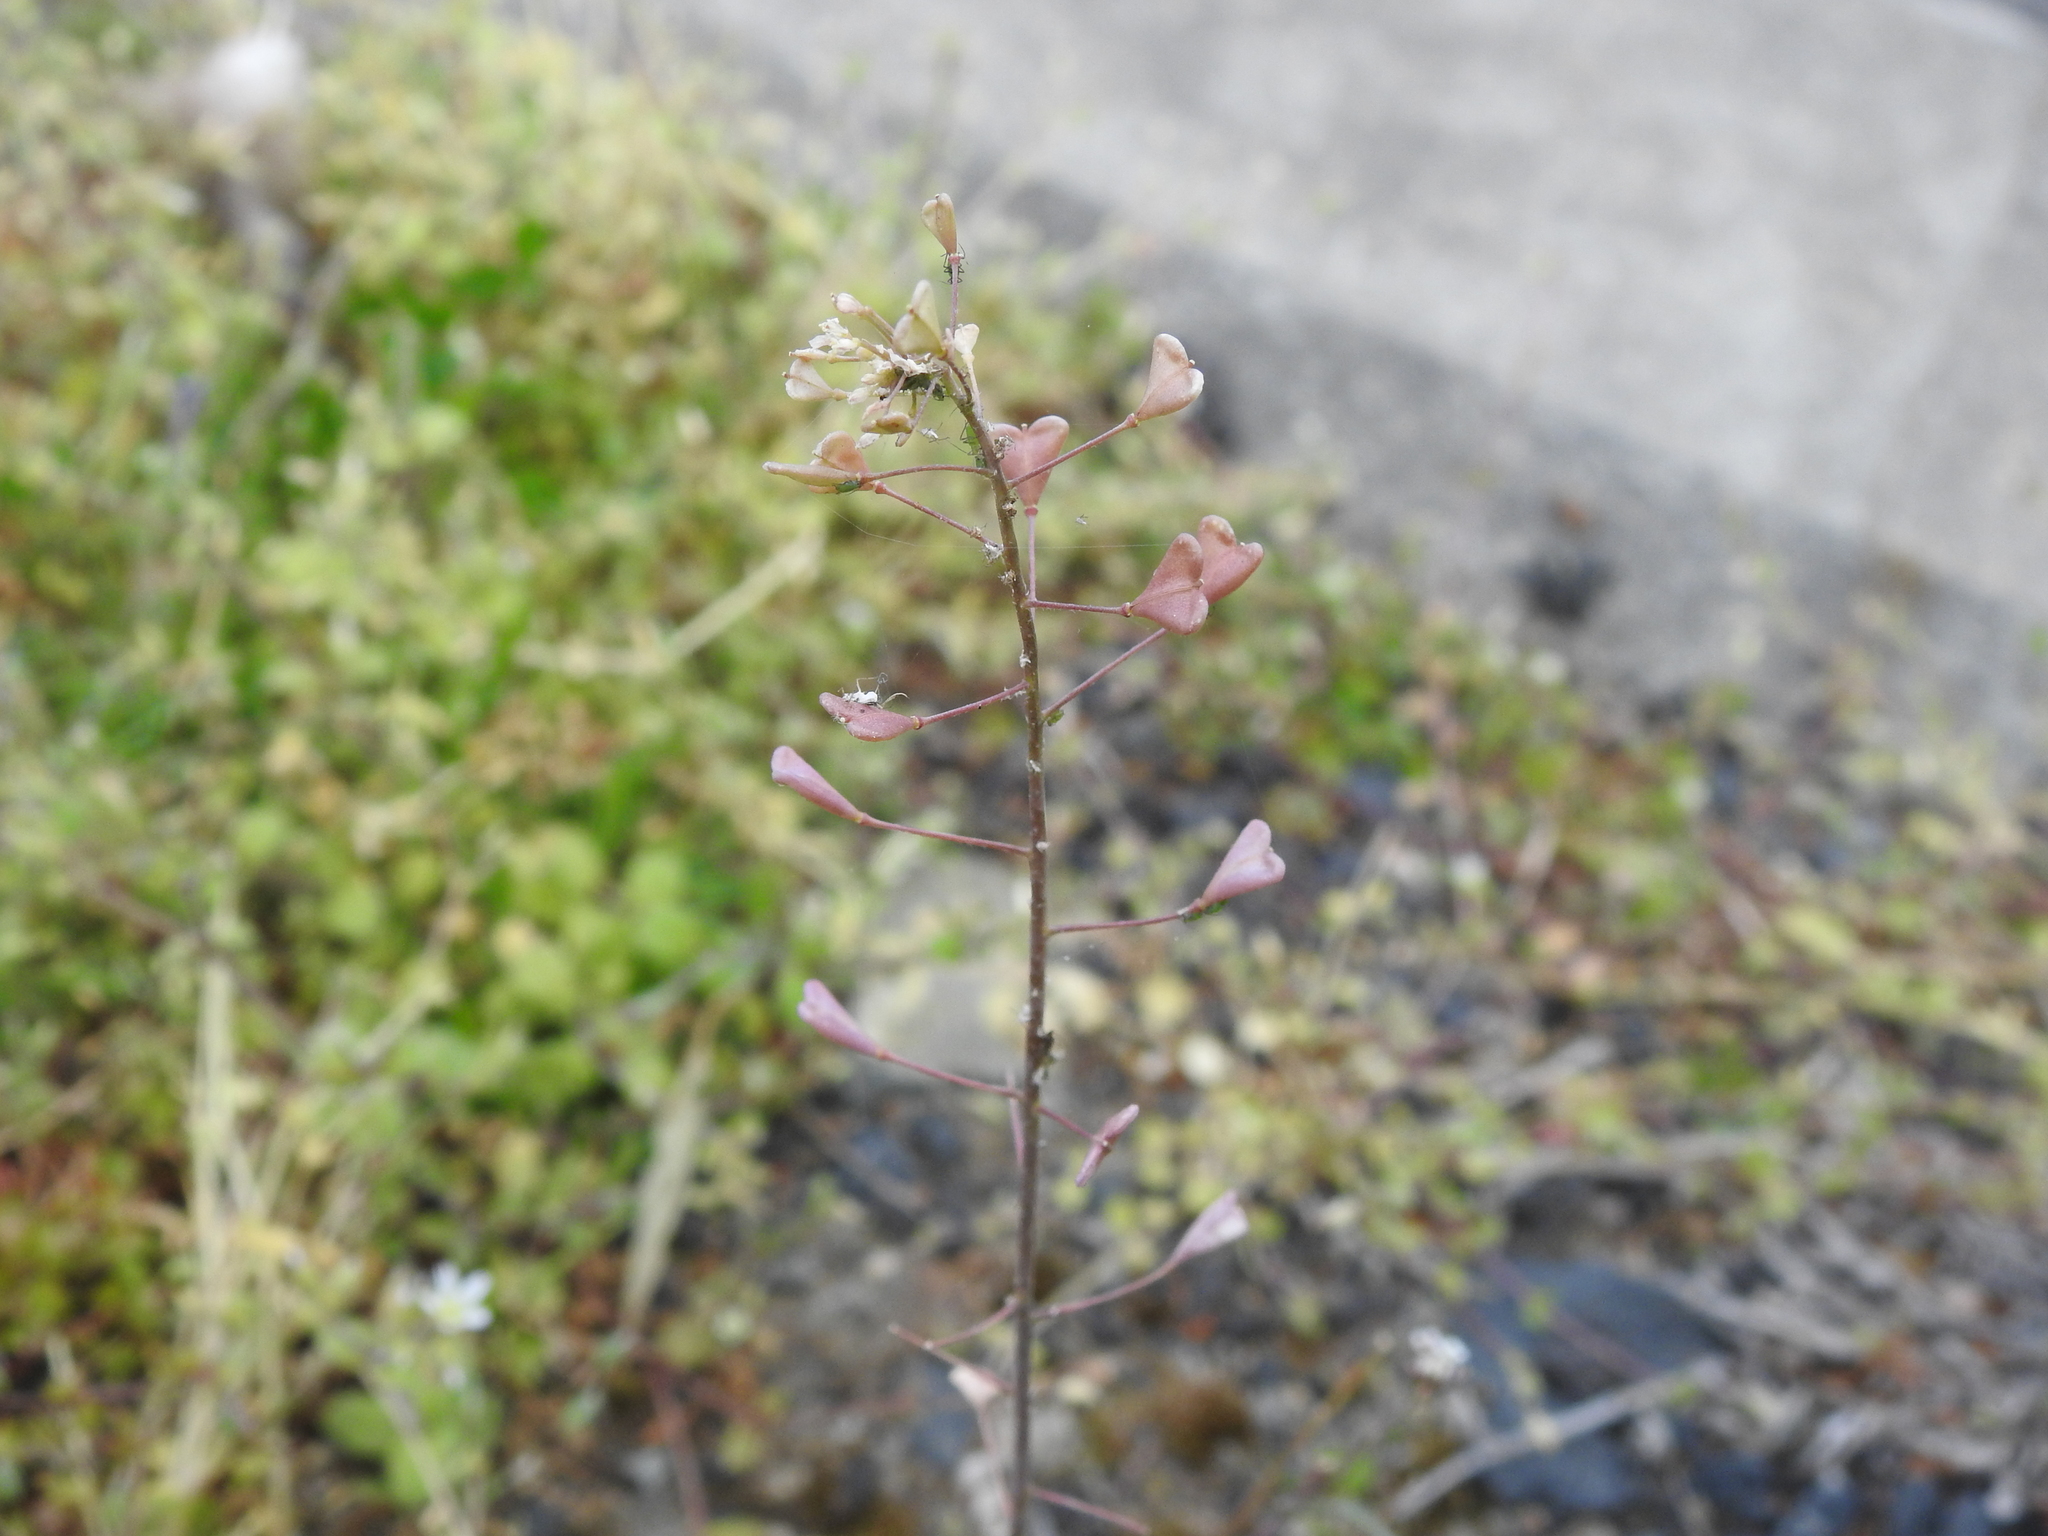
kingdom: Plantae
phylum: Tracheophyta
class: Magnoliopsida
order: Brassicales
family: Brassicaceae
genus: Capsella
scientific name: Capsella bursa-pastoris
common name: Shepherd's purse
